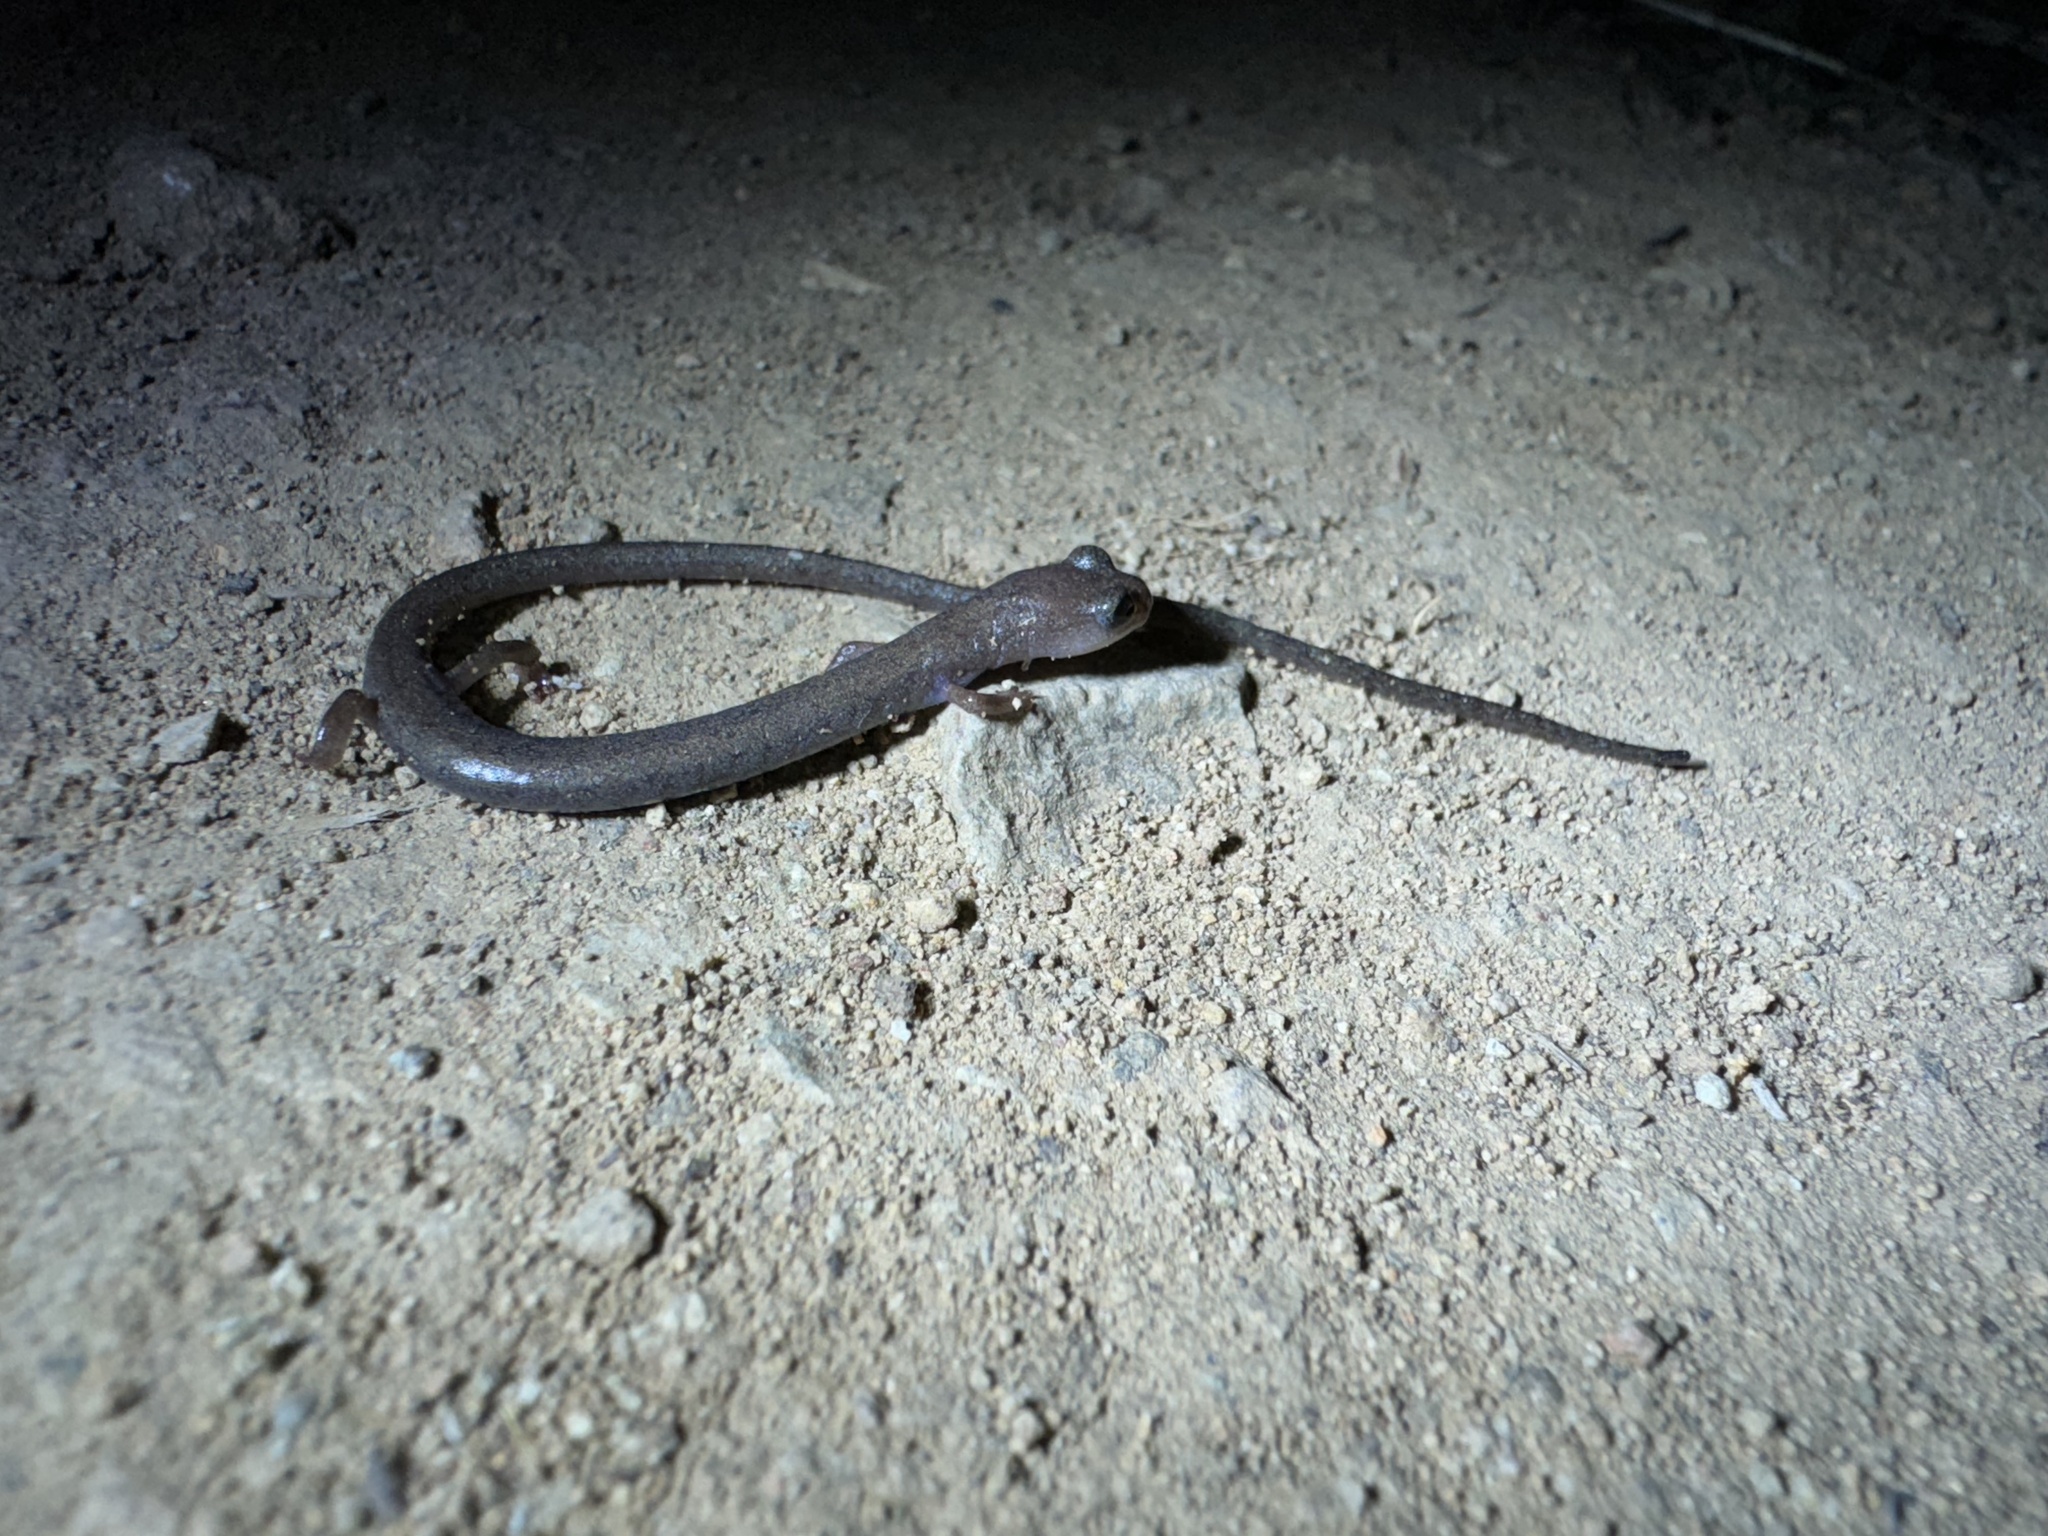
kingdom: Animalia
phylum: Chordata
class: Amphibia
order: Caudata
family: Plethodontidae
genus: Batrachoseps
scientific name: Batrachoseps major
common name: Garden slender salamander
